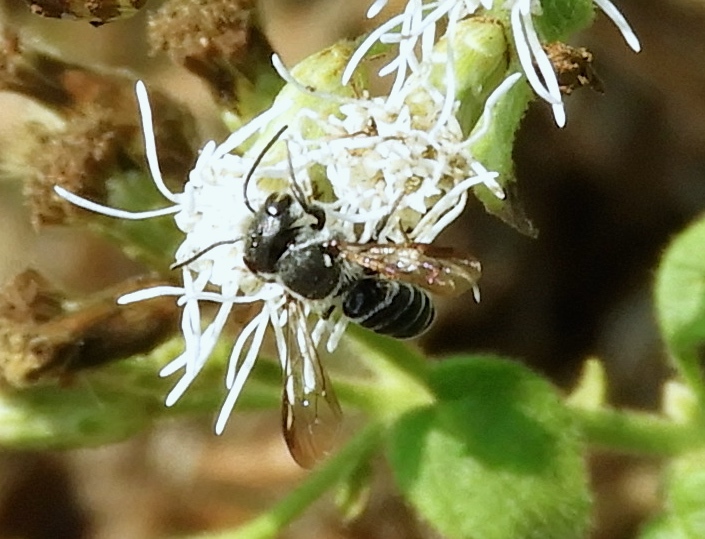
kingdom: Animalia
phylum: Arthropoda
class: Insecta
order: Hymenoptera
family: Megachilidae
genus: Megachile
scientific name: Megachile
